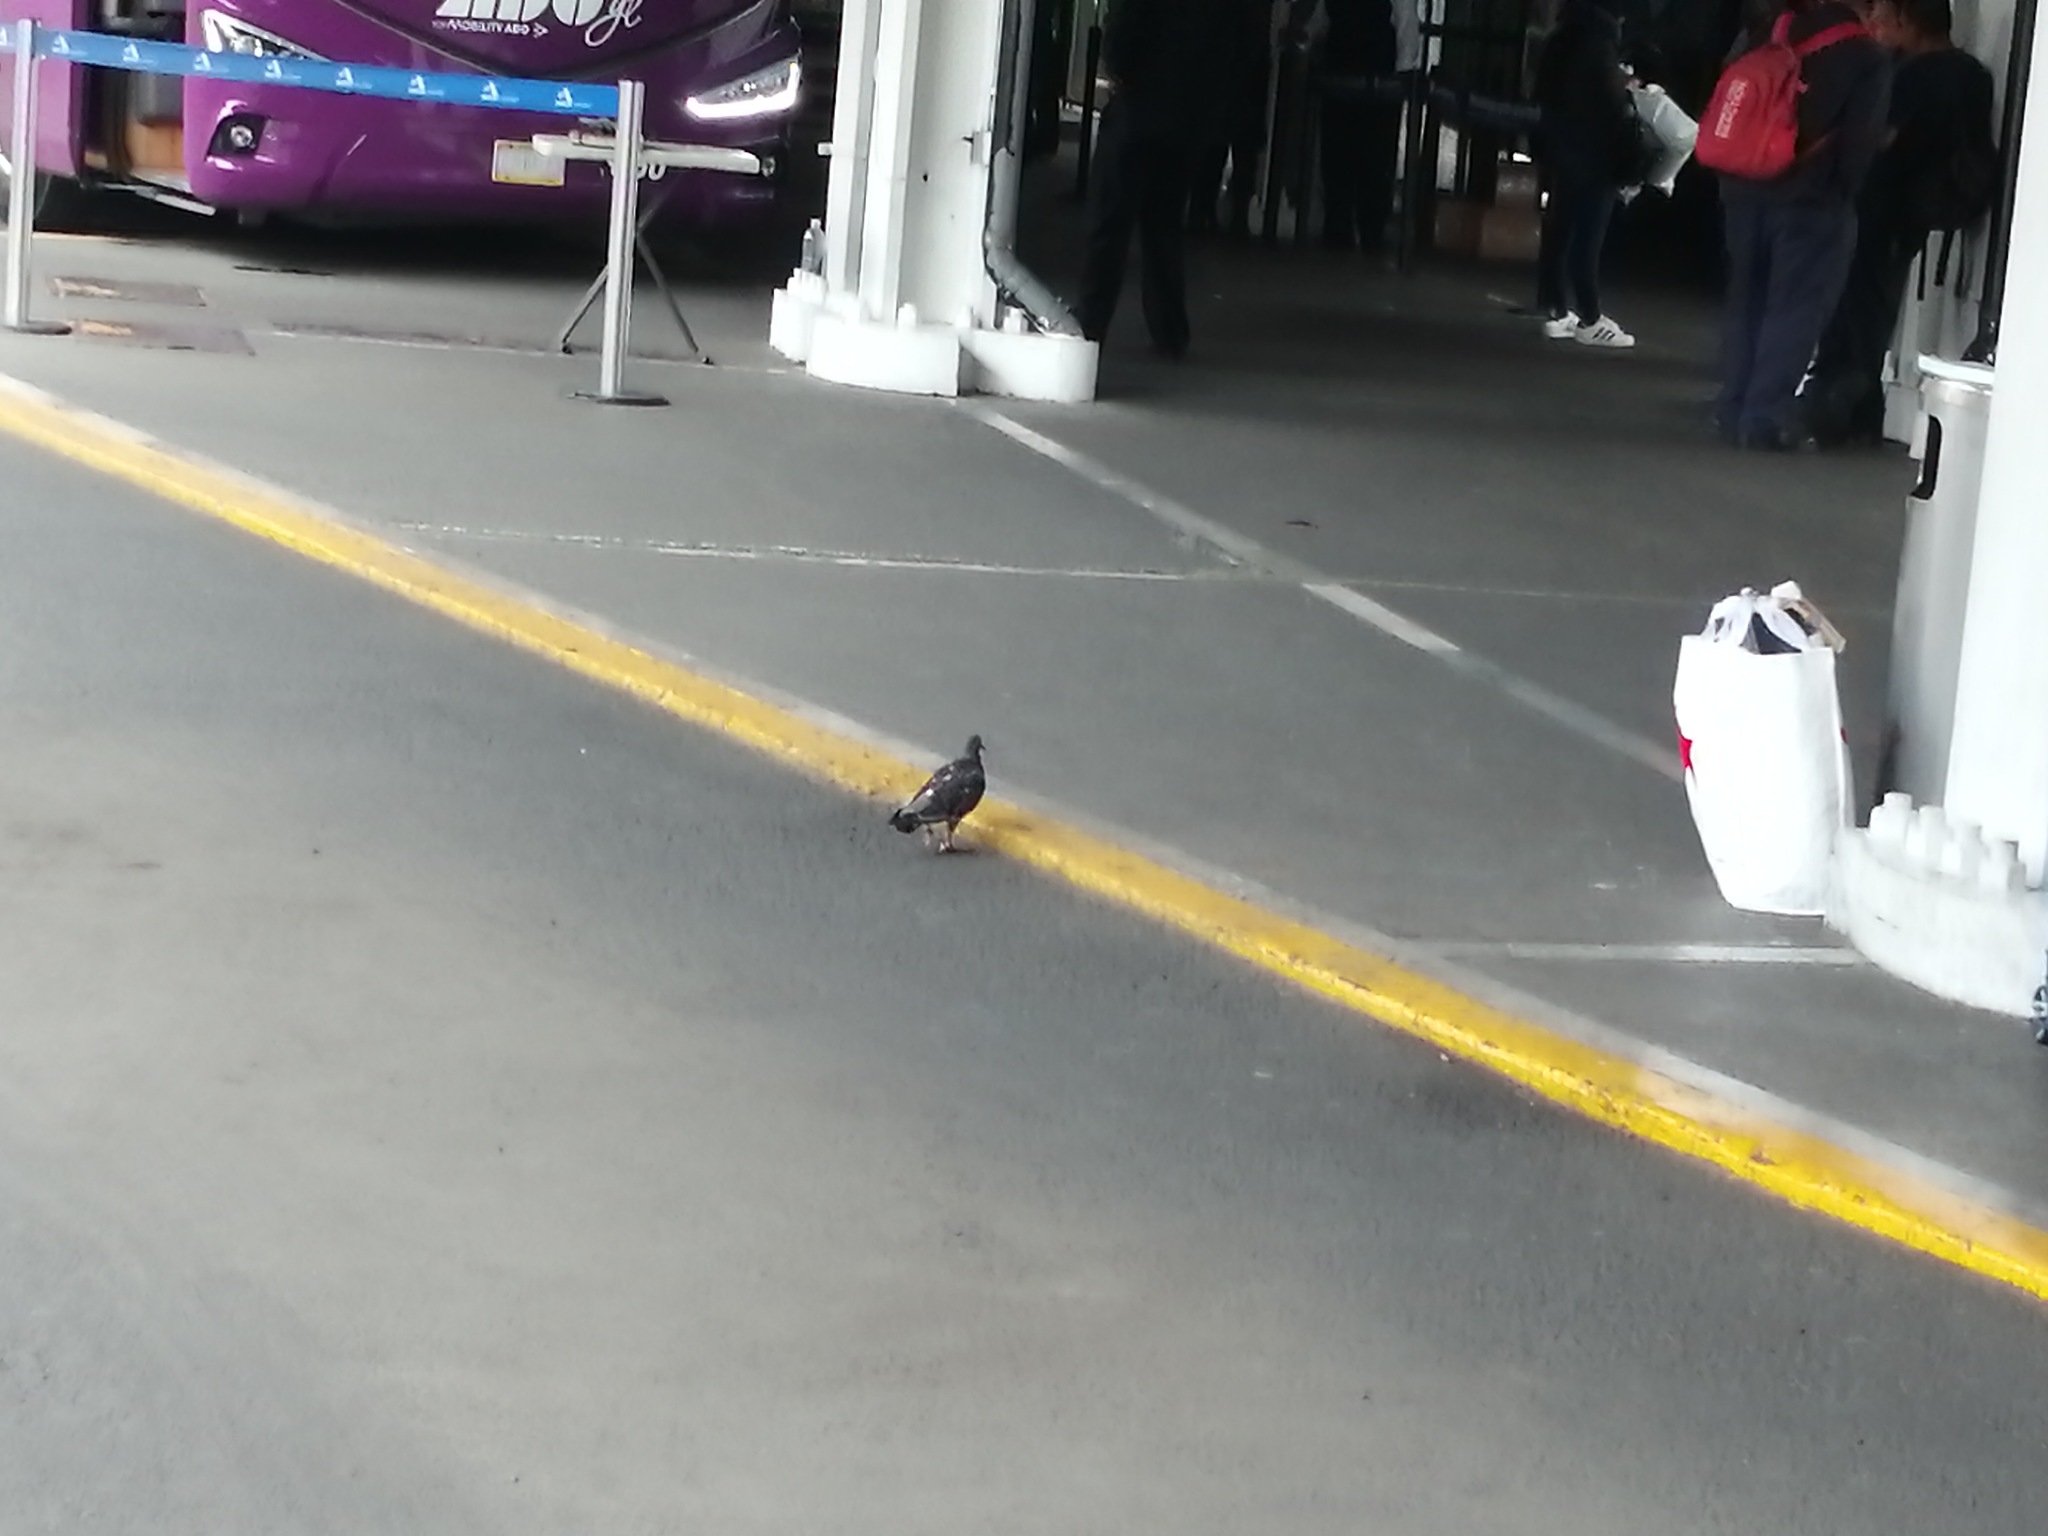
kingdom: Animalia
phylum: Chordata
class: Aves
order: Columbiformes
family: Columbidae
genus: Columba
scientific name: Columba livia
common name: Rock pigeon
